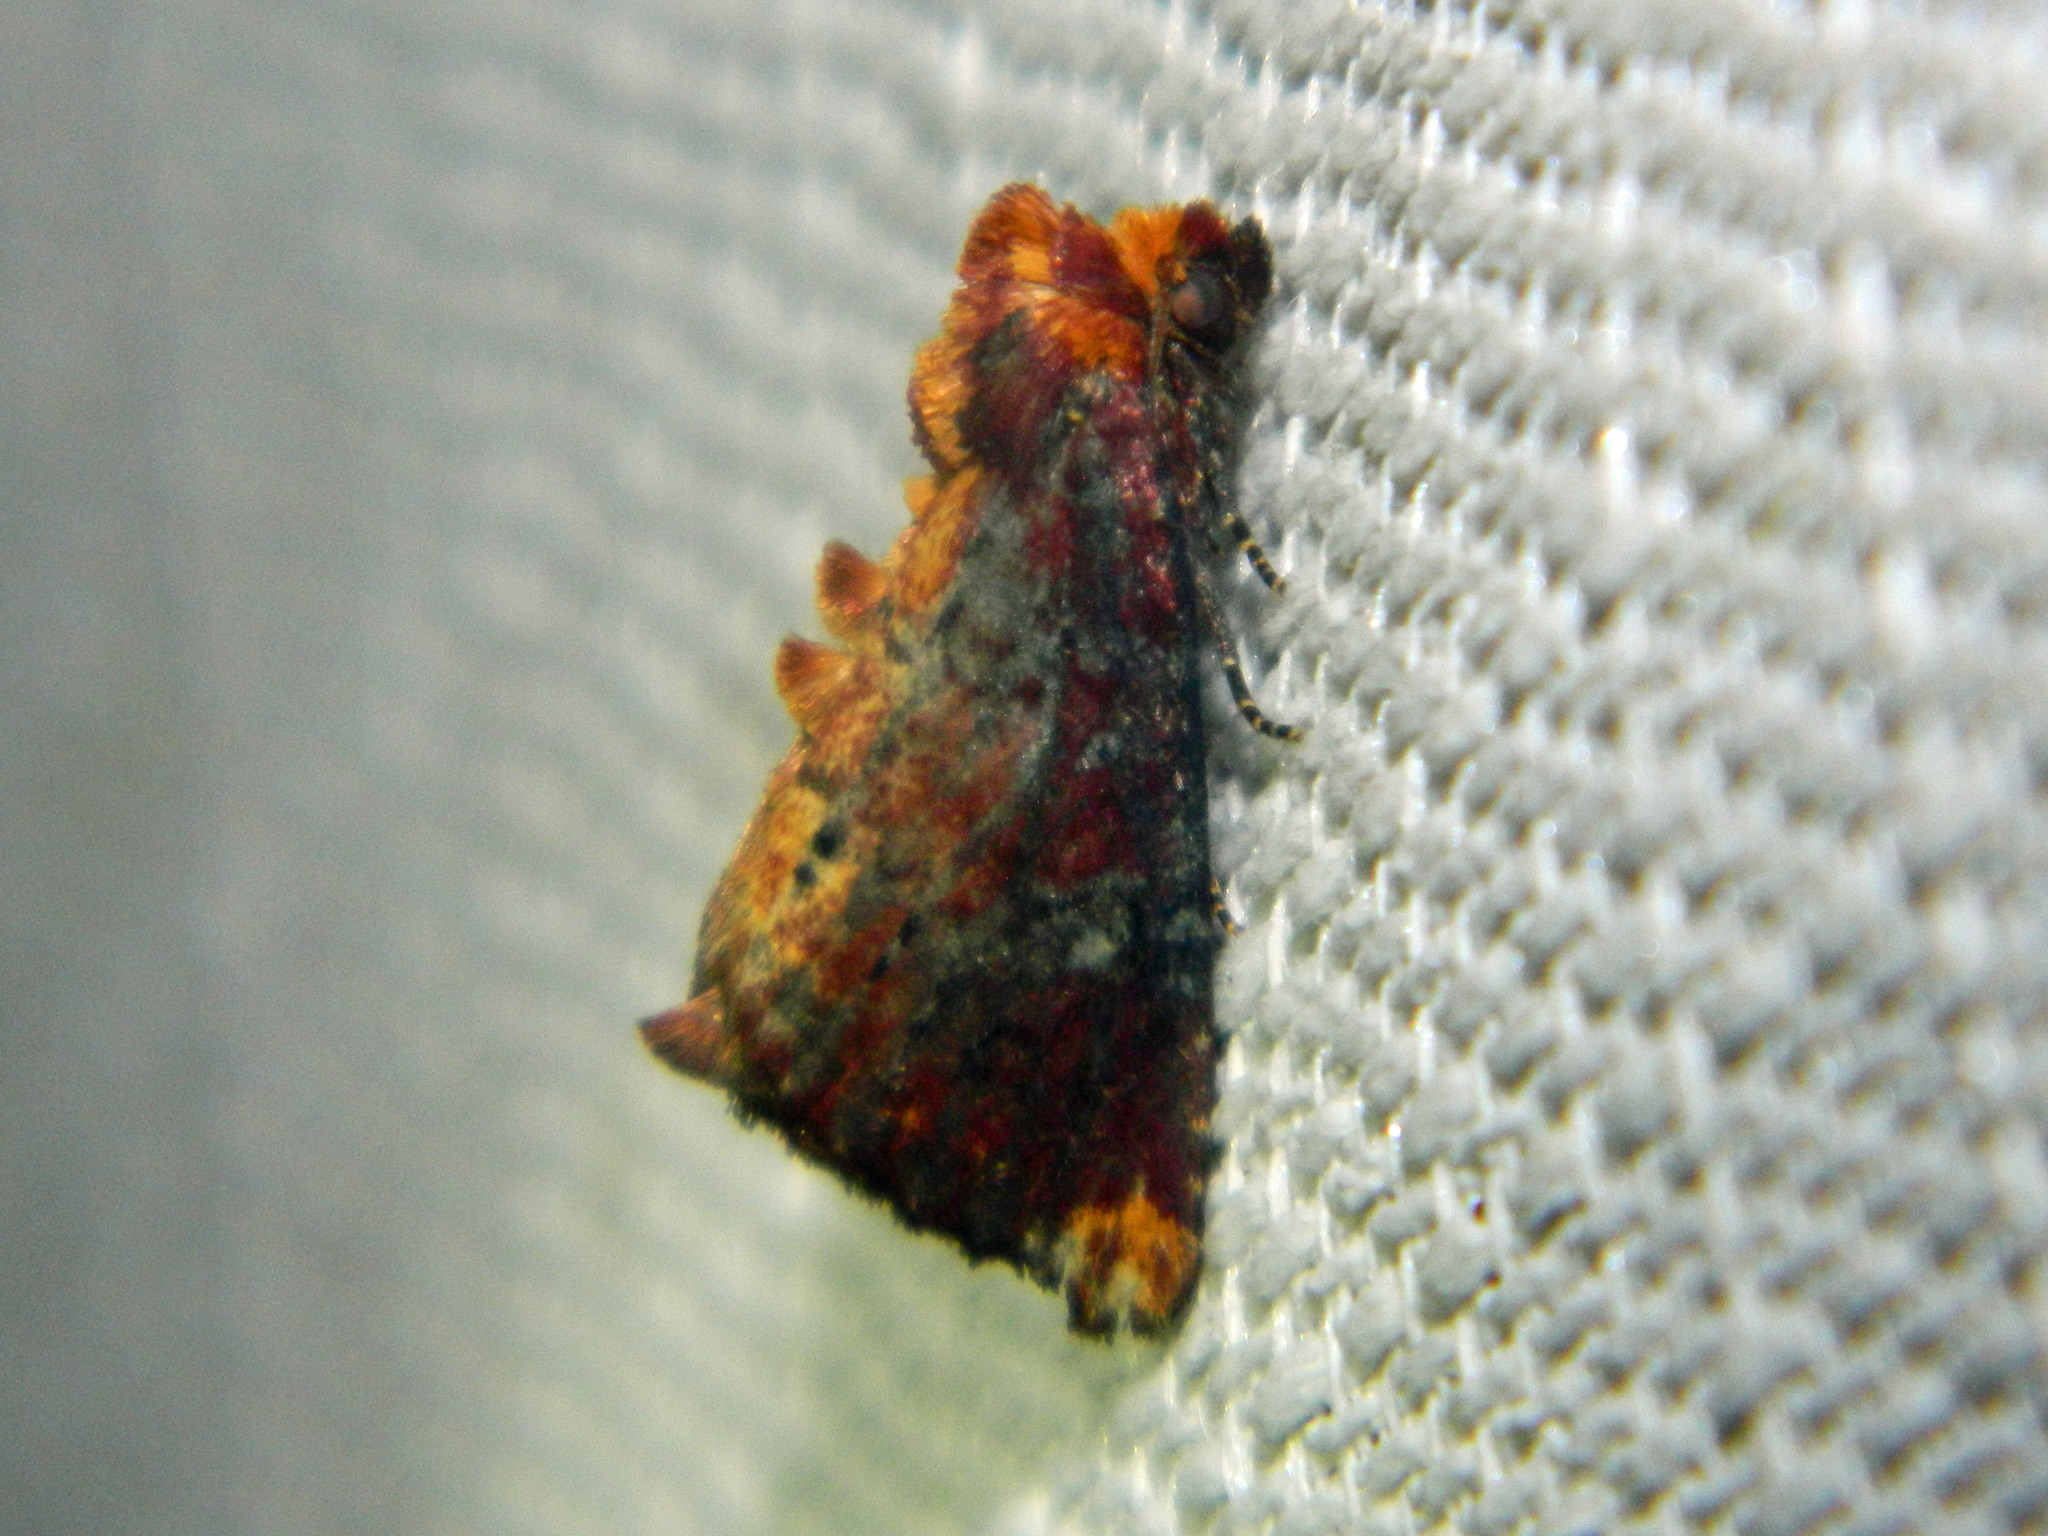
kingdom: Animalia
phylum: Arthropoda
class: Insecta
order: Lepidoptera
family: Noctuidae
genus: Achatodes
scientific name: Achatodes zeae
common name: Elder shoot borer
